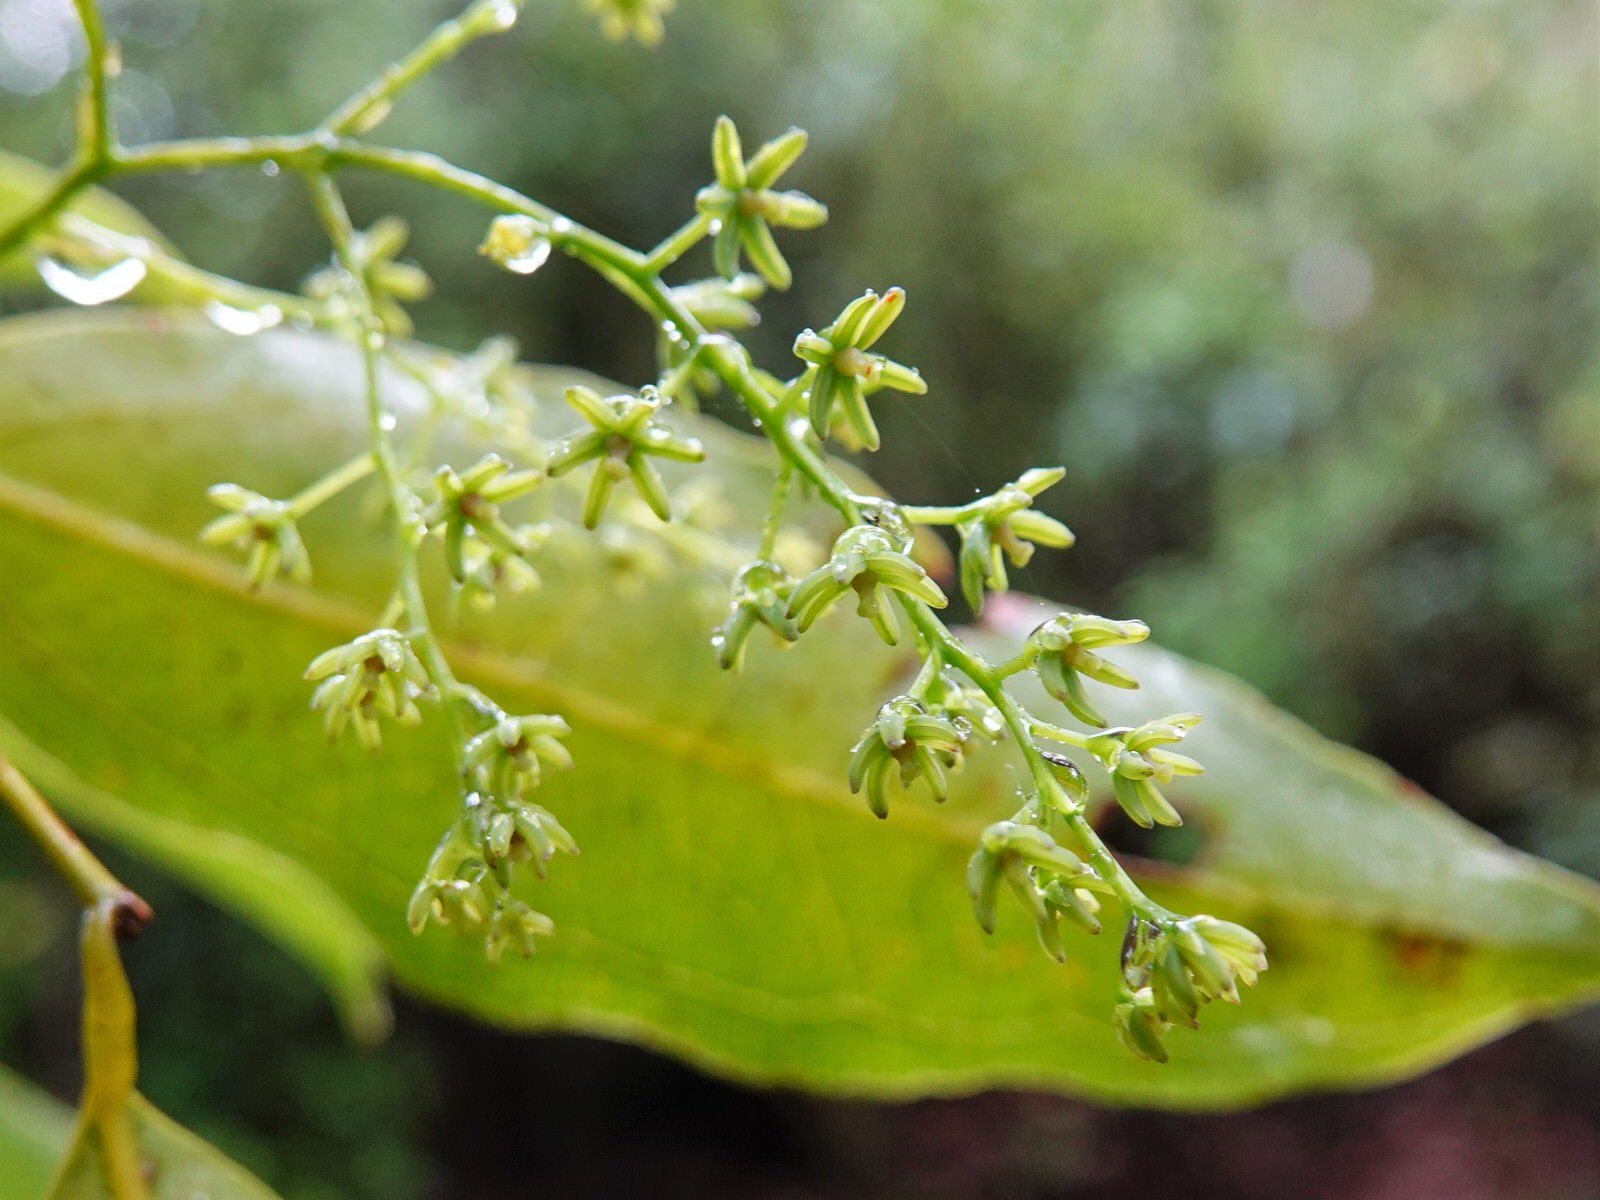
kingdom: Plantae
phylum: Tracheophyta
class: Liliopsida
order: Liliales
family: Ripogonaceae
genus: Ripogonum
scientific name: Ripogonum scandens
